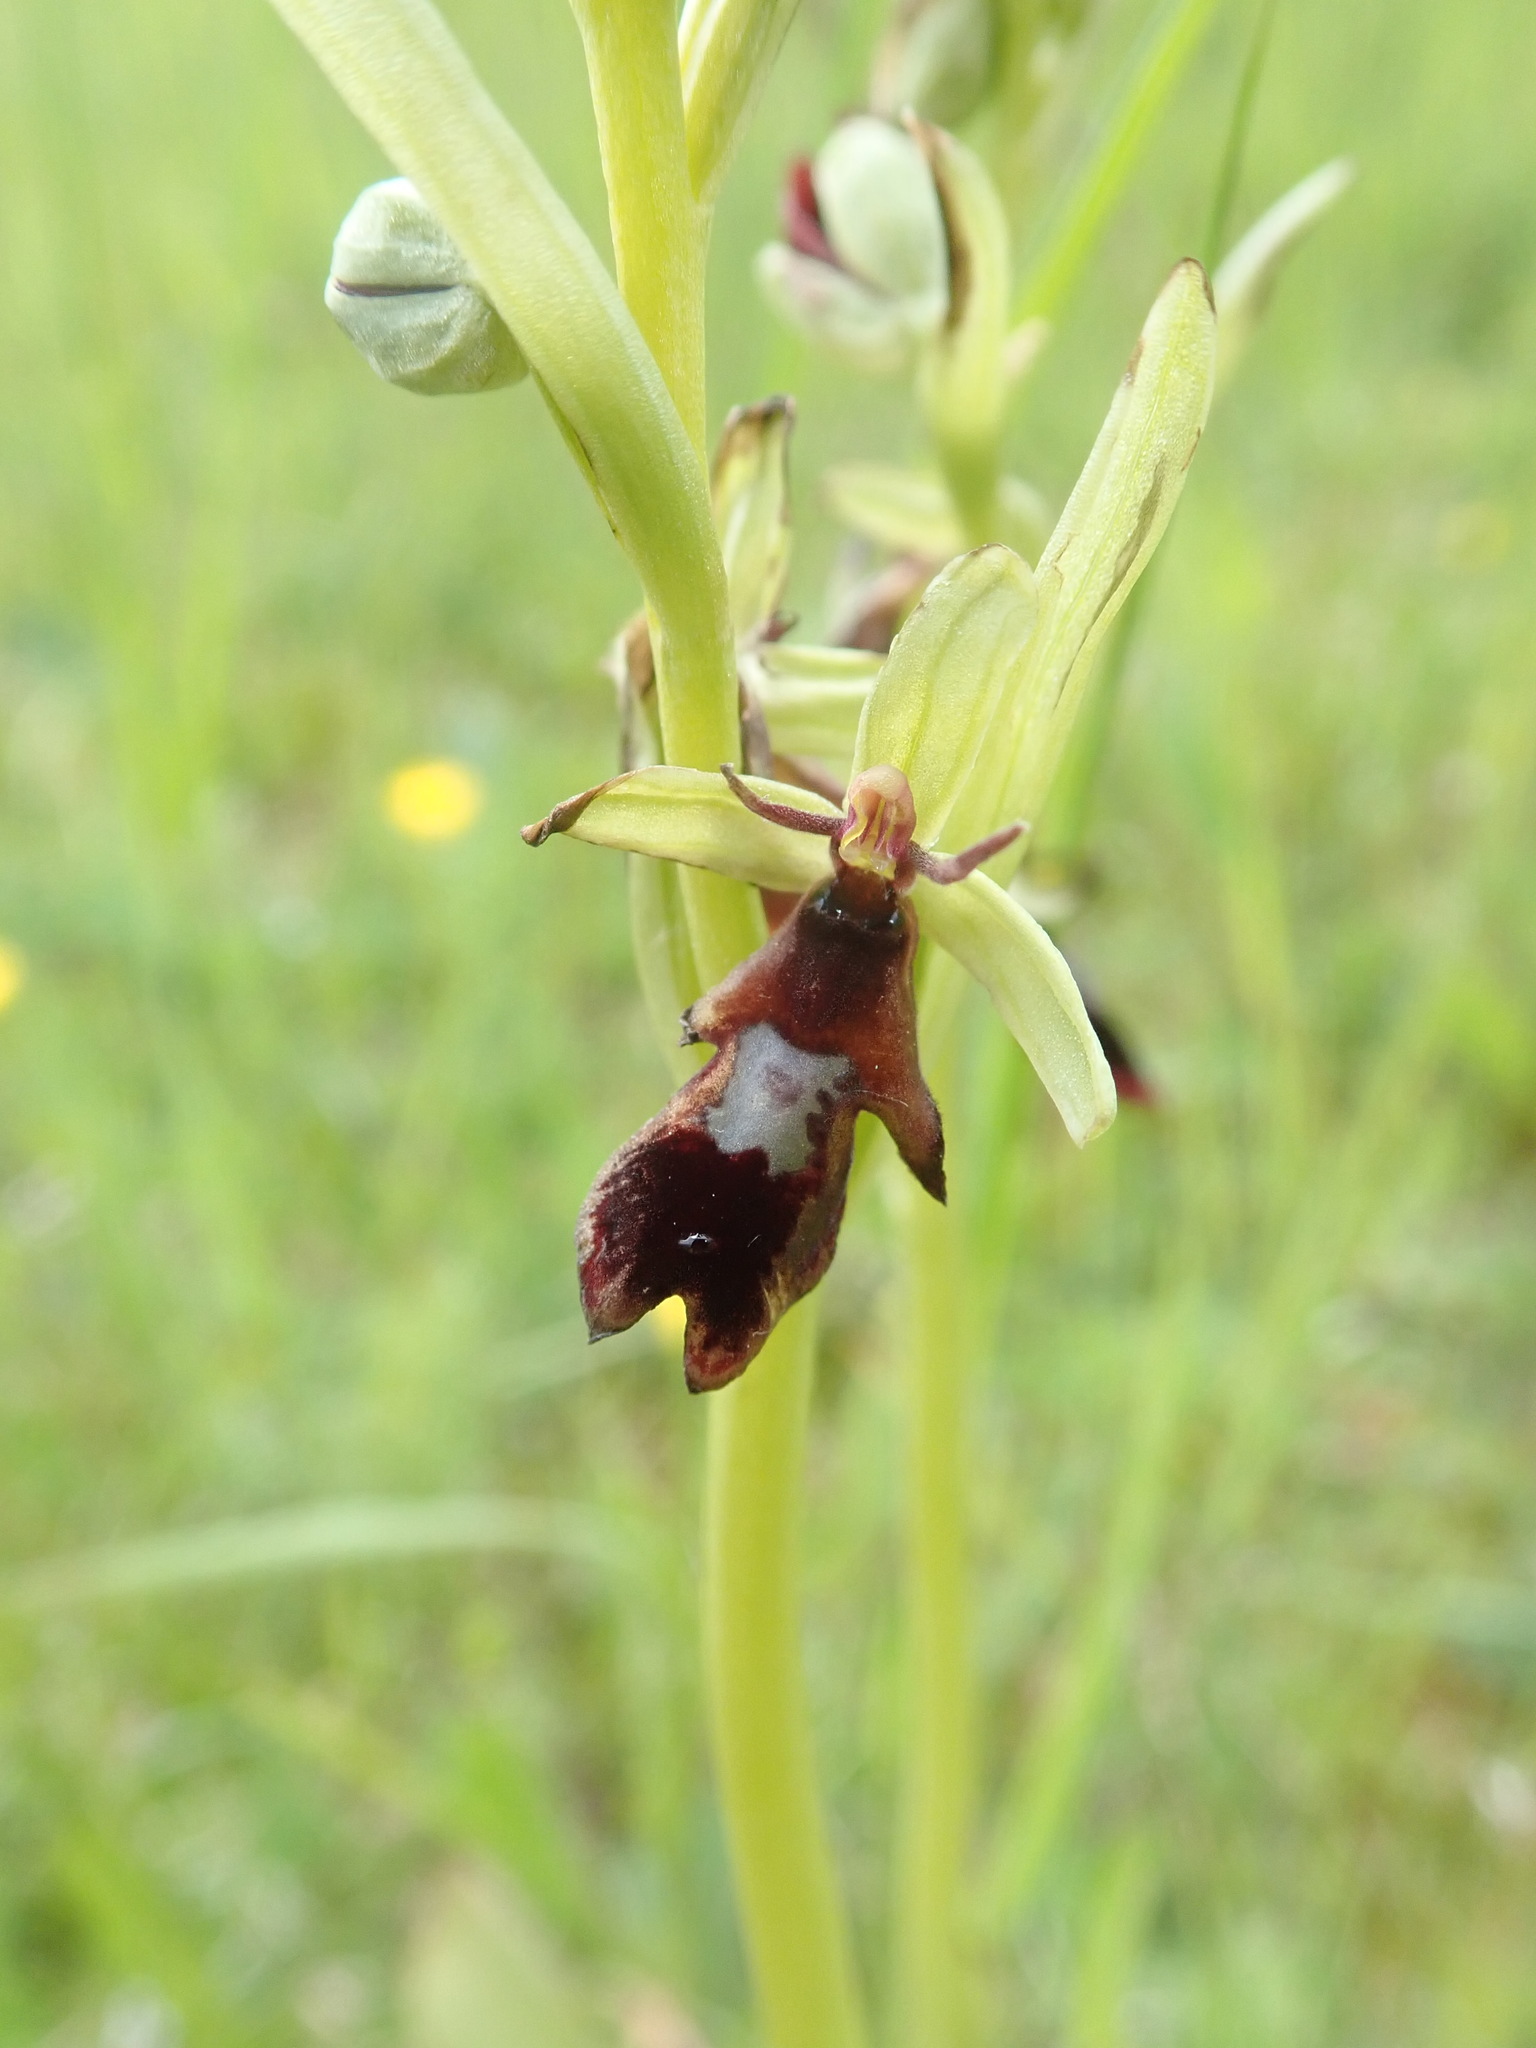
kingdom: Plantae
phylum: Tracheophyta
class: Liliopsida
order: Asparagales
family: Orchidaceae
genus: Ophrys
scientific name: Ophrys insectifera
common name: Fly orchid
